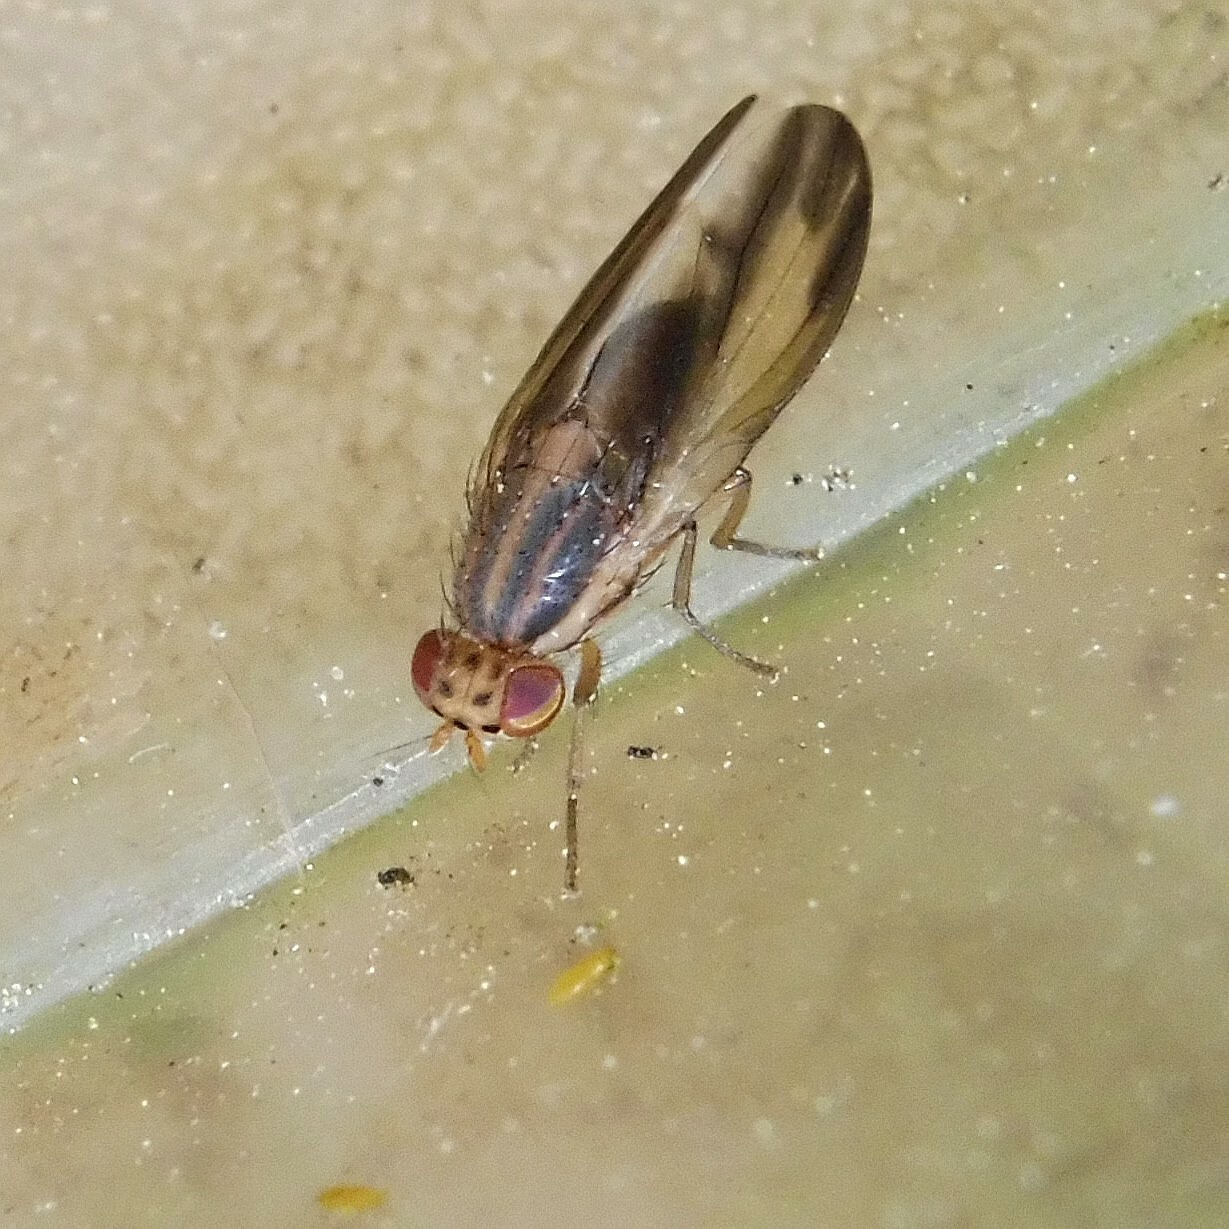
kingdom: Animalia
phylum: Arthropoda
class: Insecta
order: Diptera
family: Lauxaniidae
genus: Peplomyza
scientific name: Peplomyza litura
